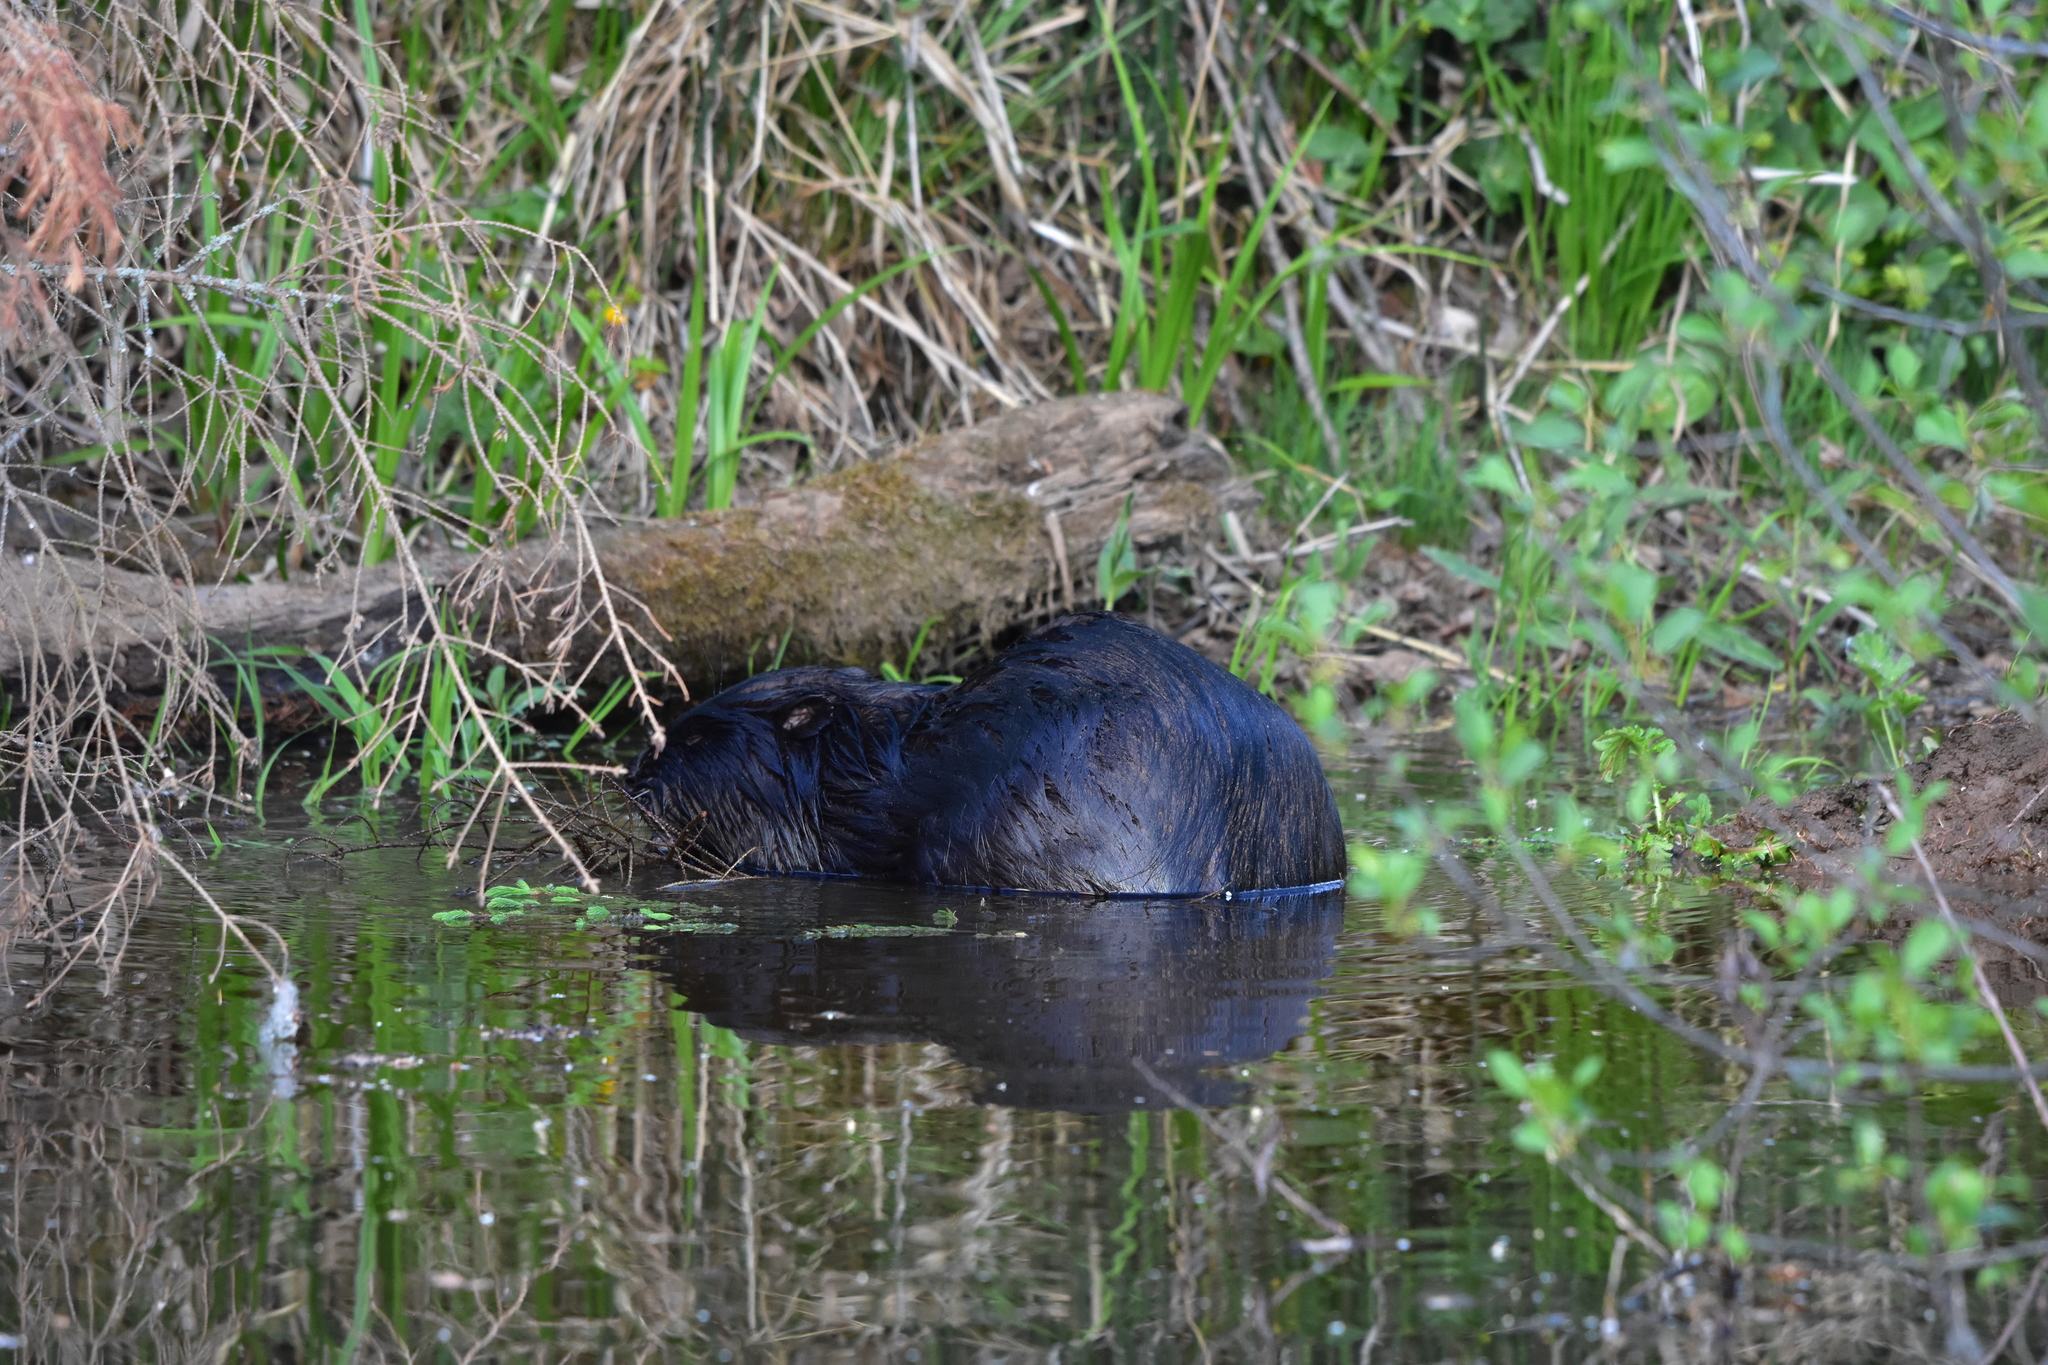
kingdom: Animalia
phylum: Chordata
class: Mammalia
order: Rodentia
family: Castoridae
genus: Castor
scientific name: Castor fiber
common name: Eurasian beaver
